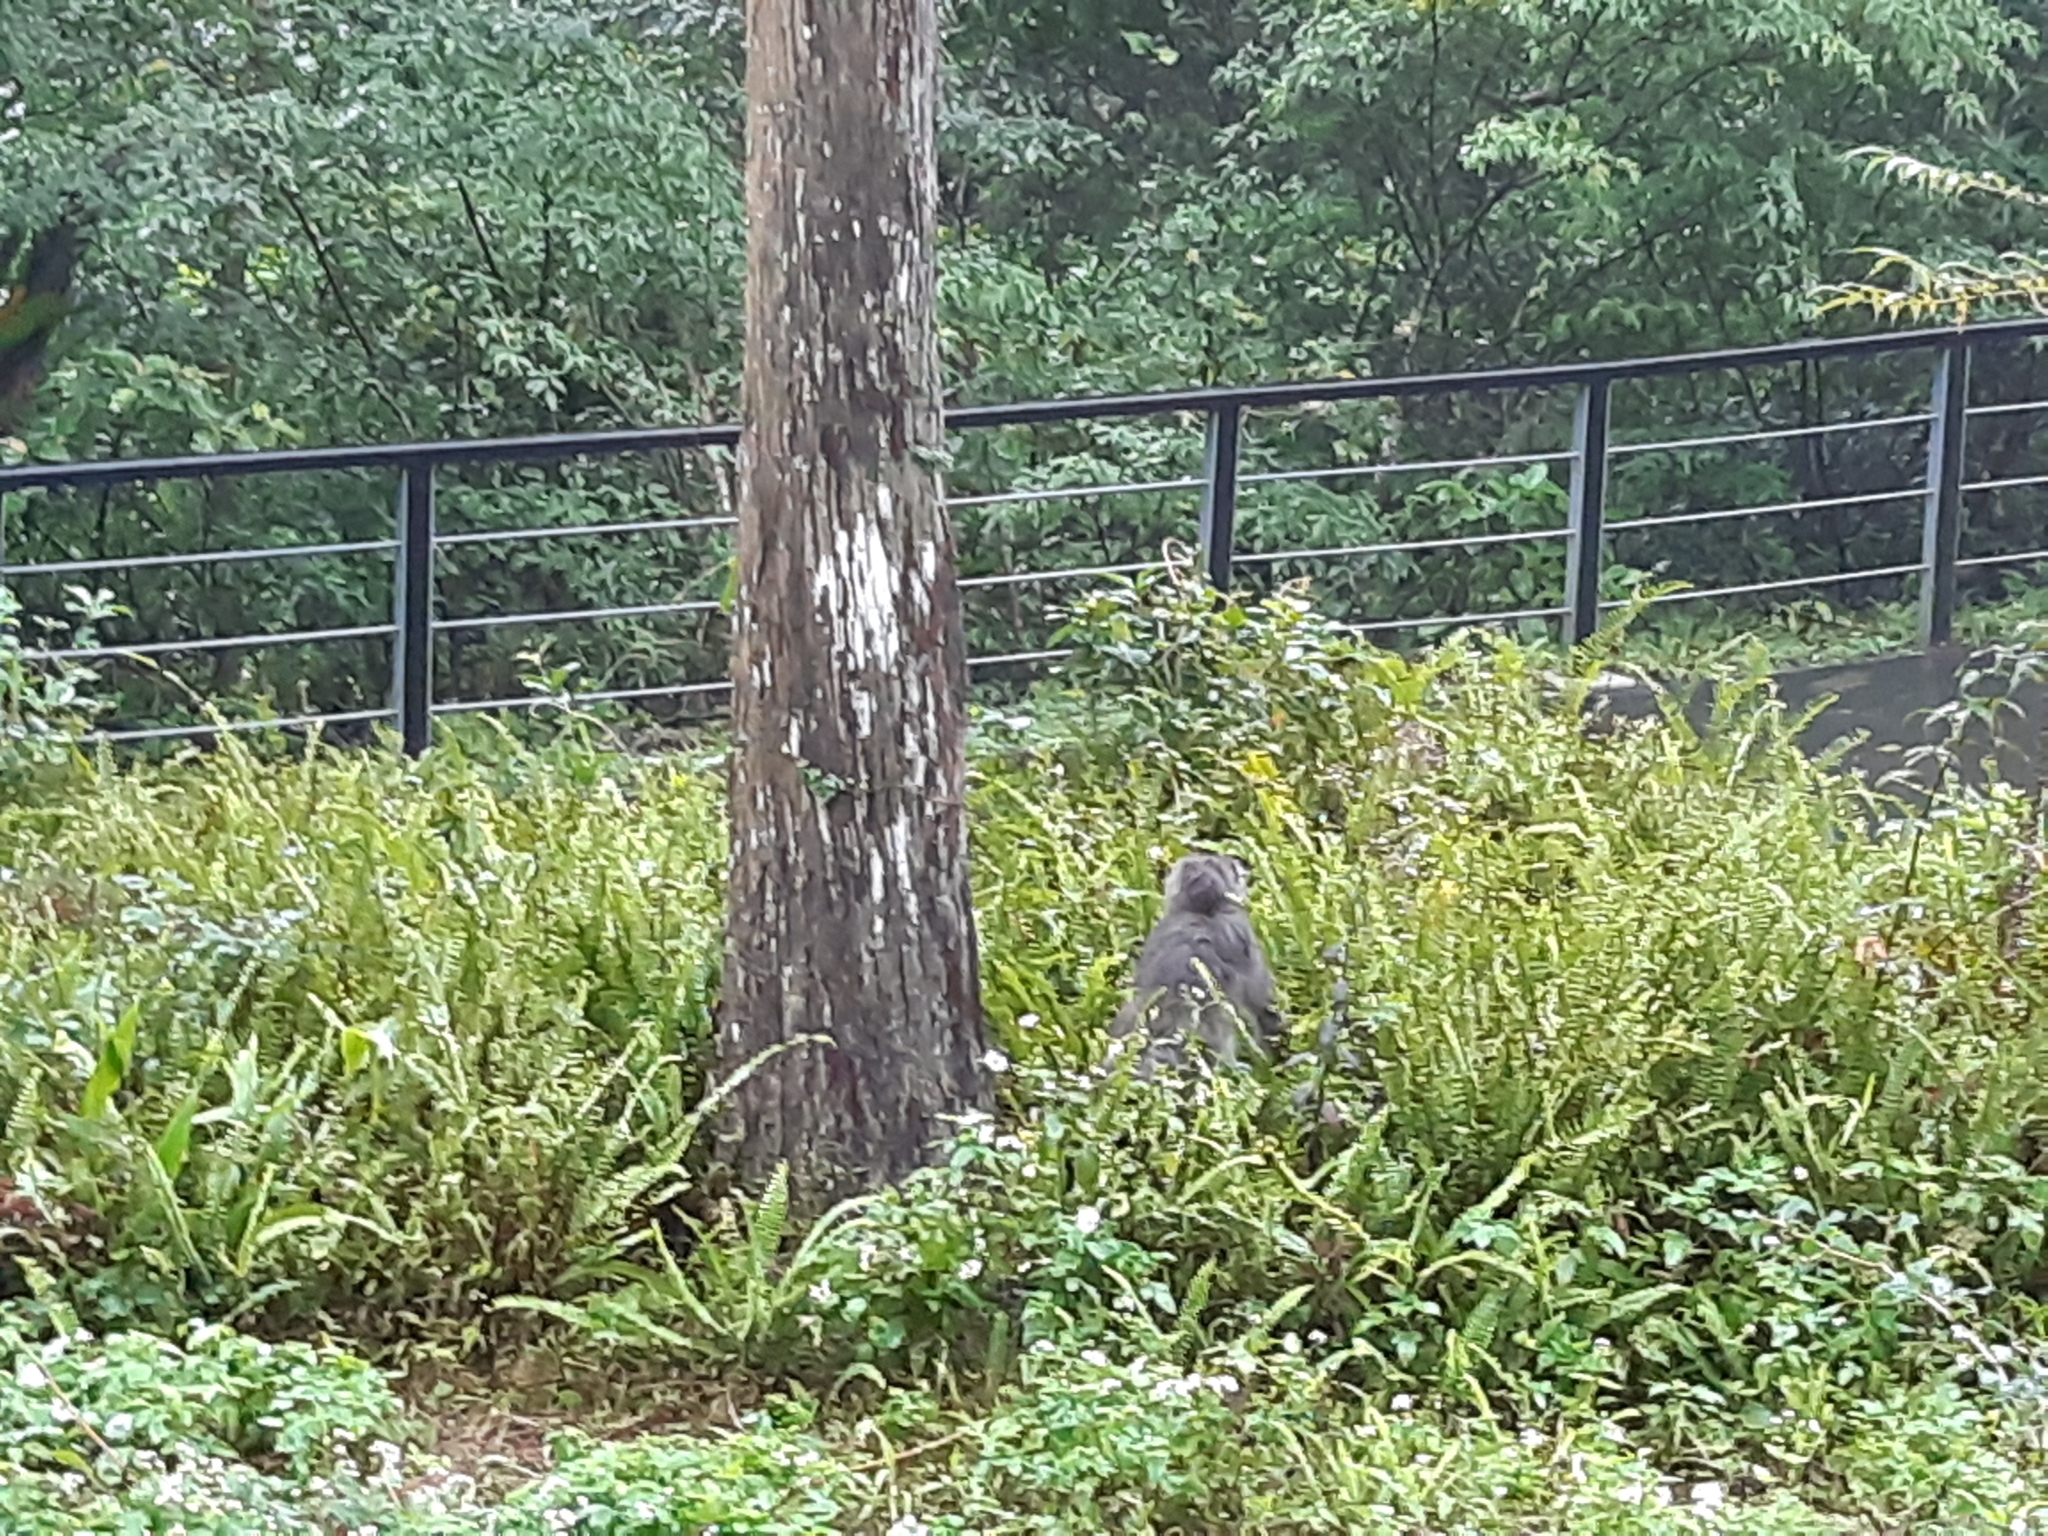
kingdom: Animalia
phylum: Chordata
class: Mammalia
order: Primates
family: Cercopithecidae
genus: Macaca
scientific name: Macaca cyclopis
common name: Formosan rock macaque
